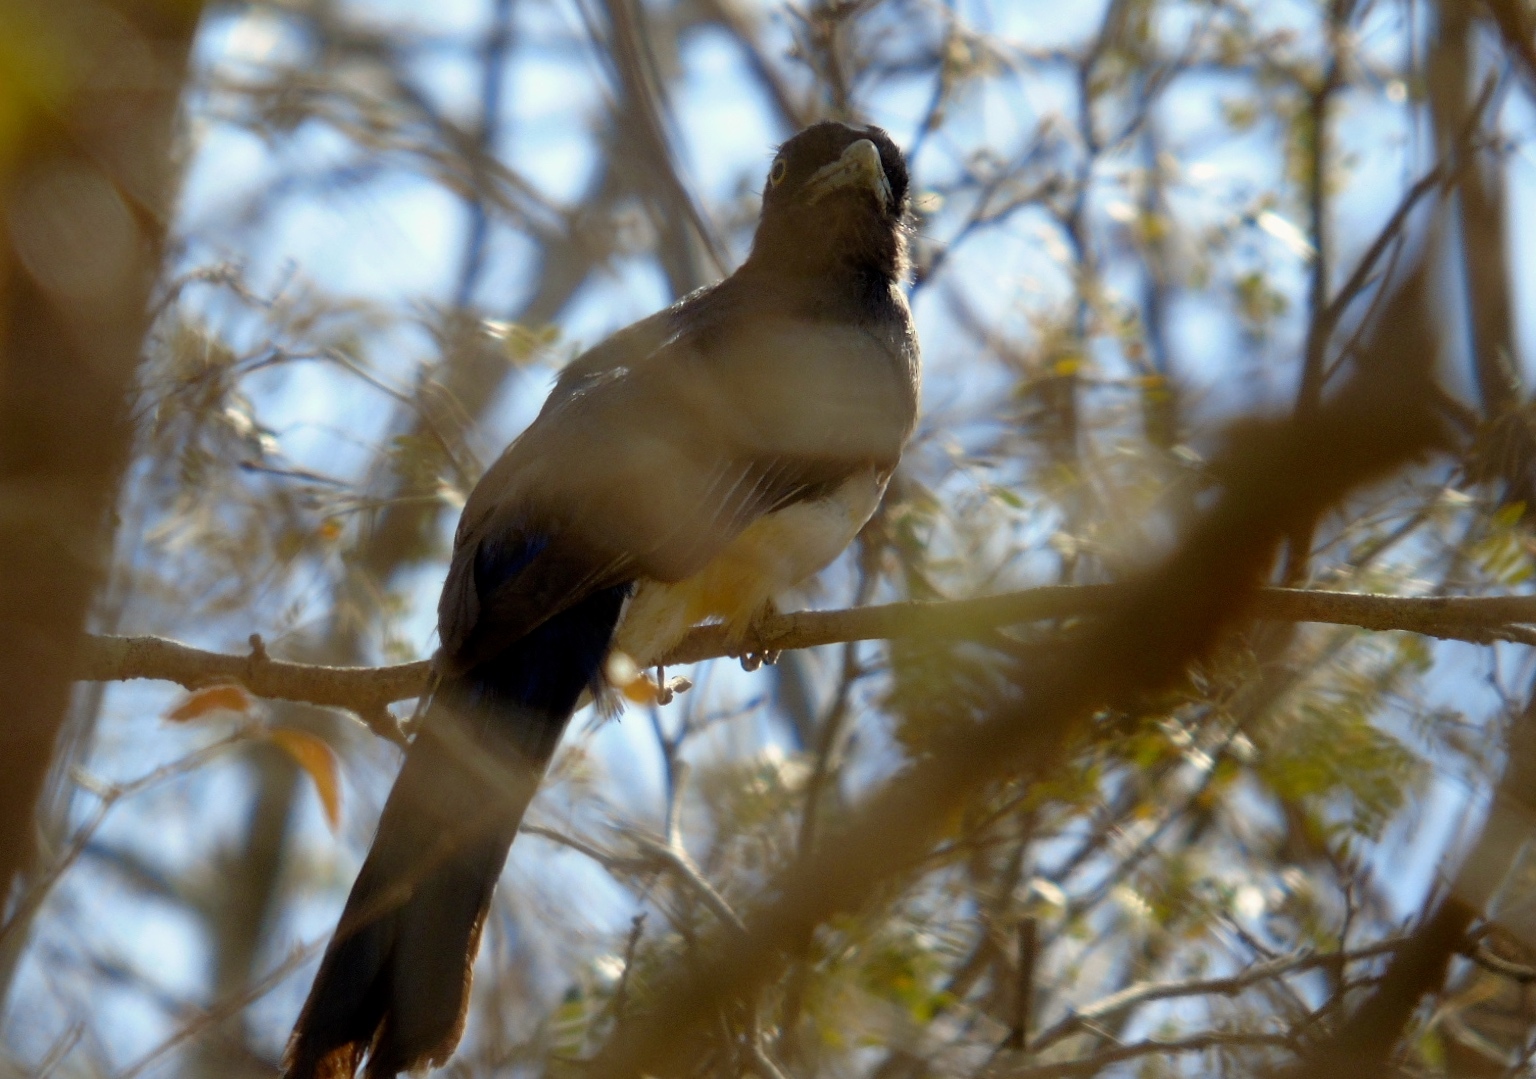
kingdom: Animalia
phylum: Chordata
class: Aves
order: Trogoniformes
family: Trogonidae
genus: Trogon
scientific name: Trogon citreolus
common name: Citreoline trogon
